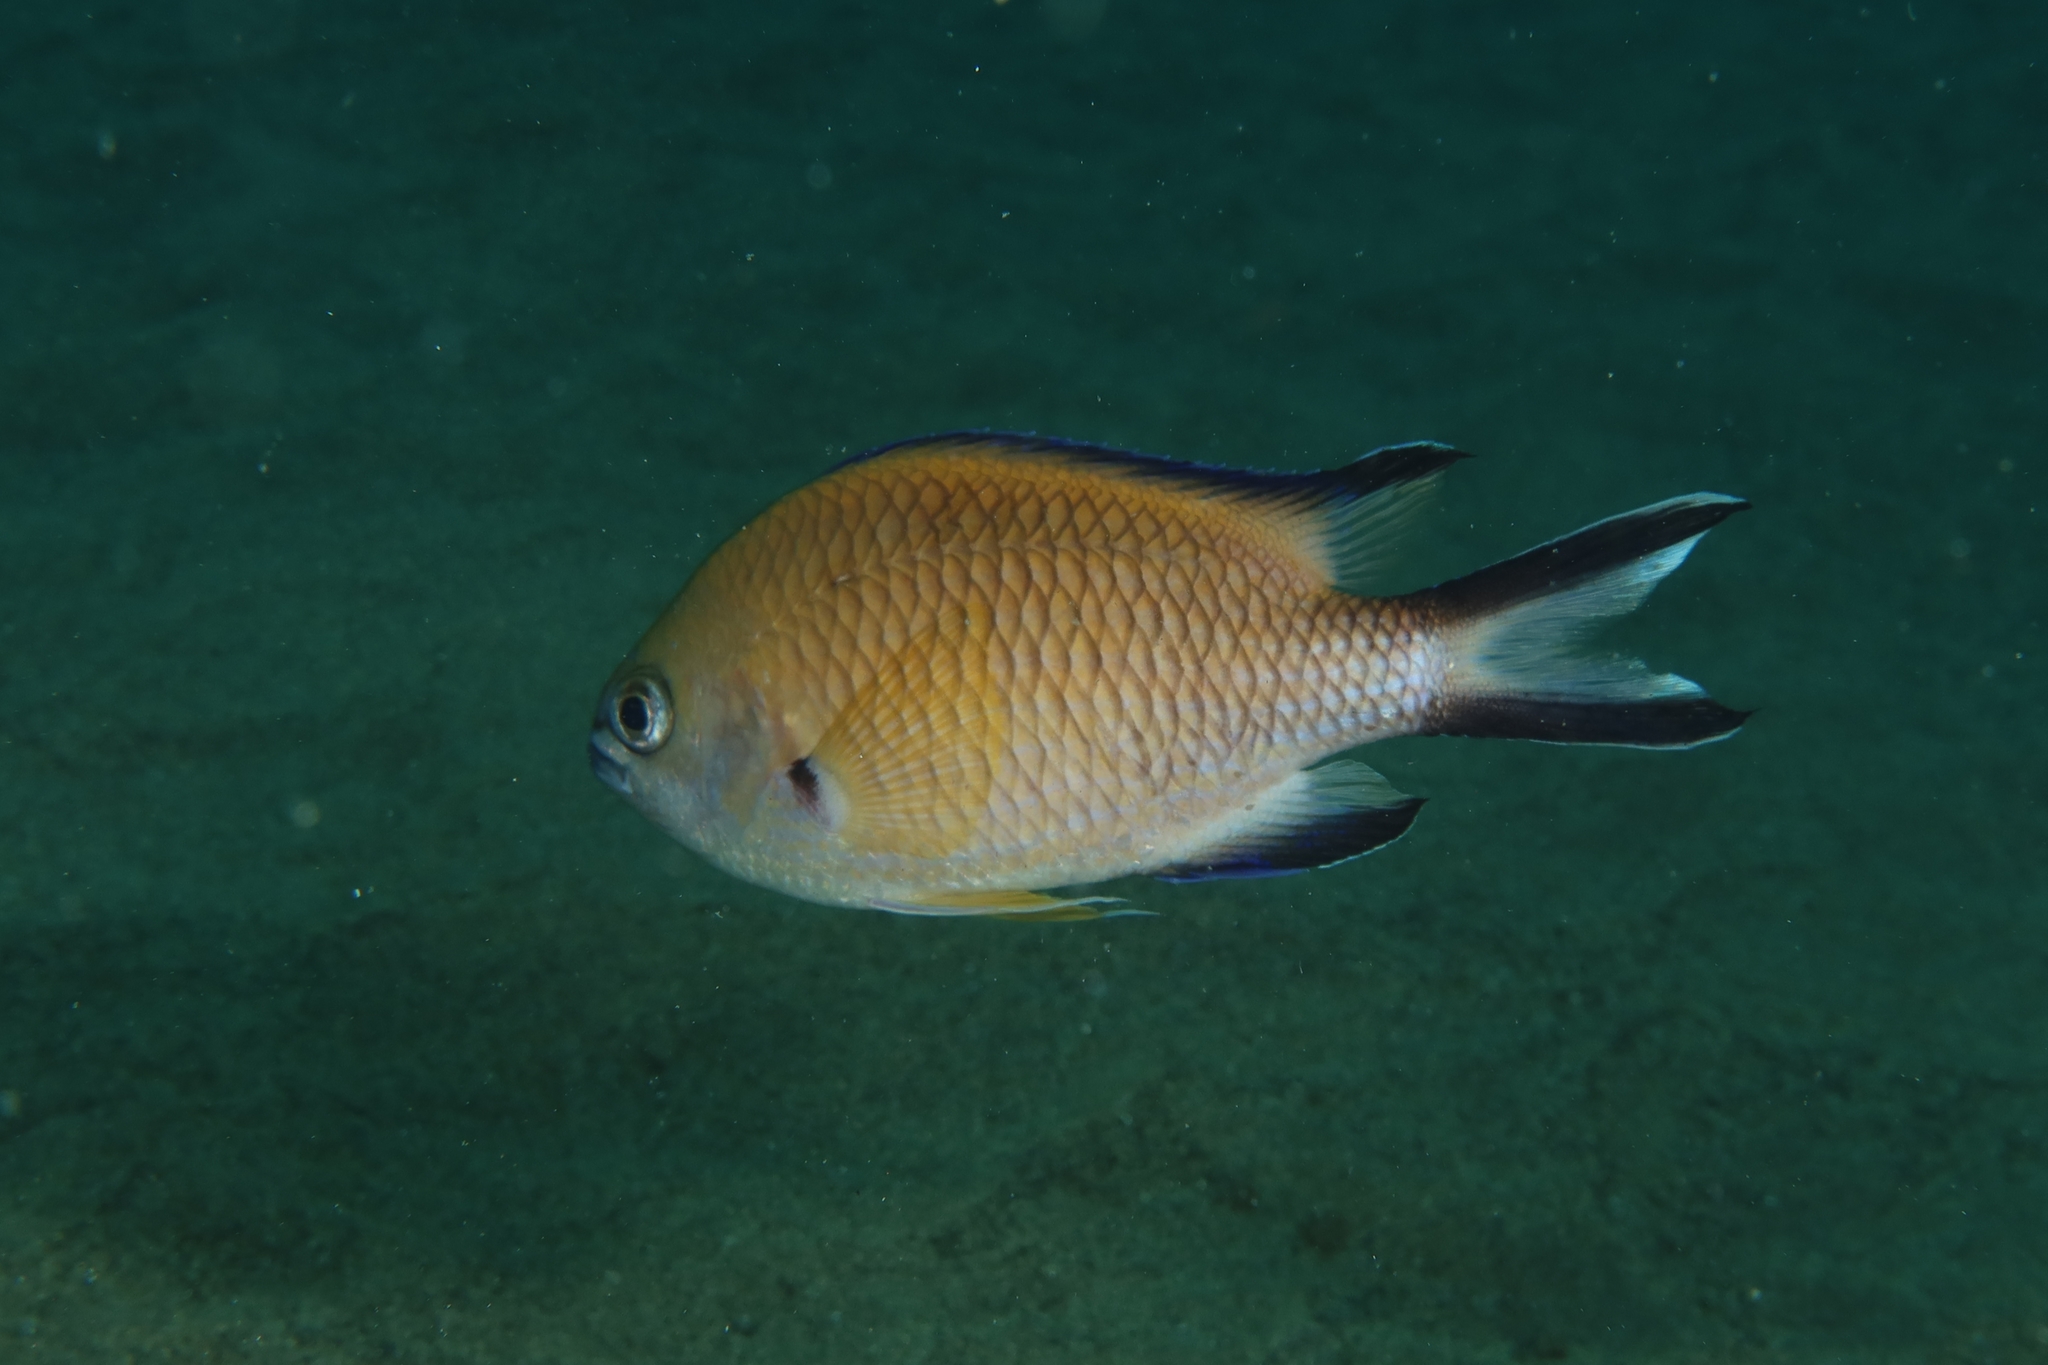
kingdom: Animalia
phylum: Chordata
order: Perciformes
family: Pomacentridae
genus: Chromis
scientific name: Chromis limbata
